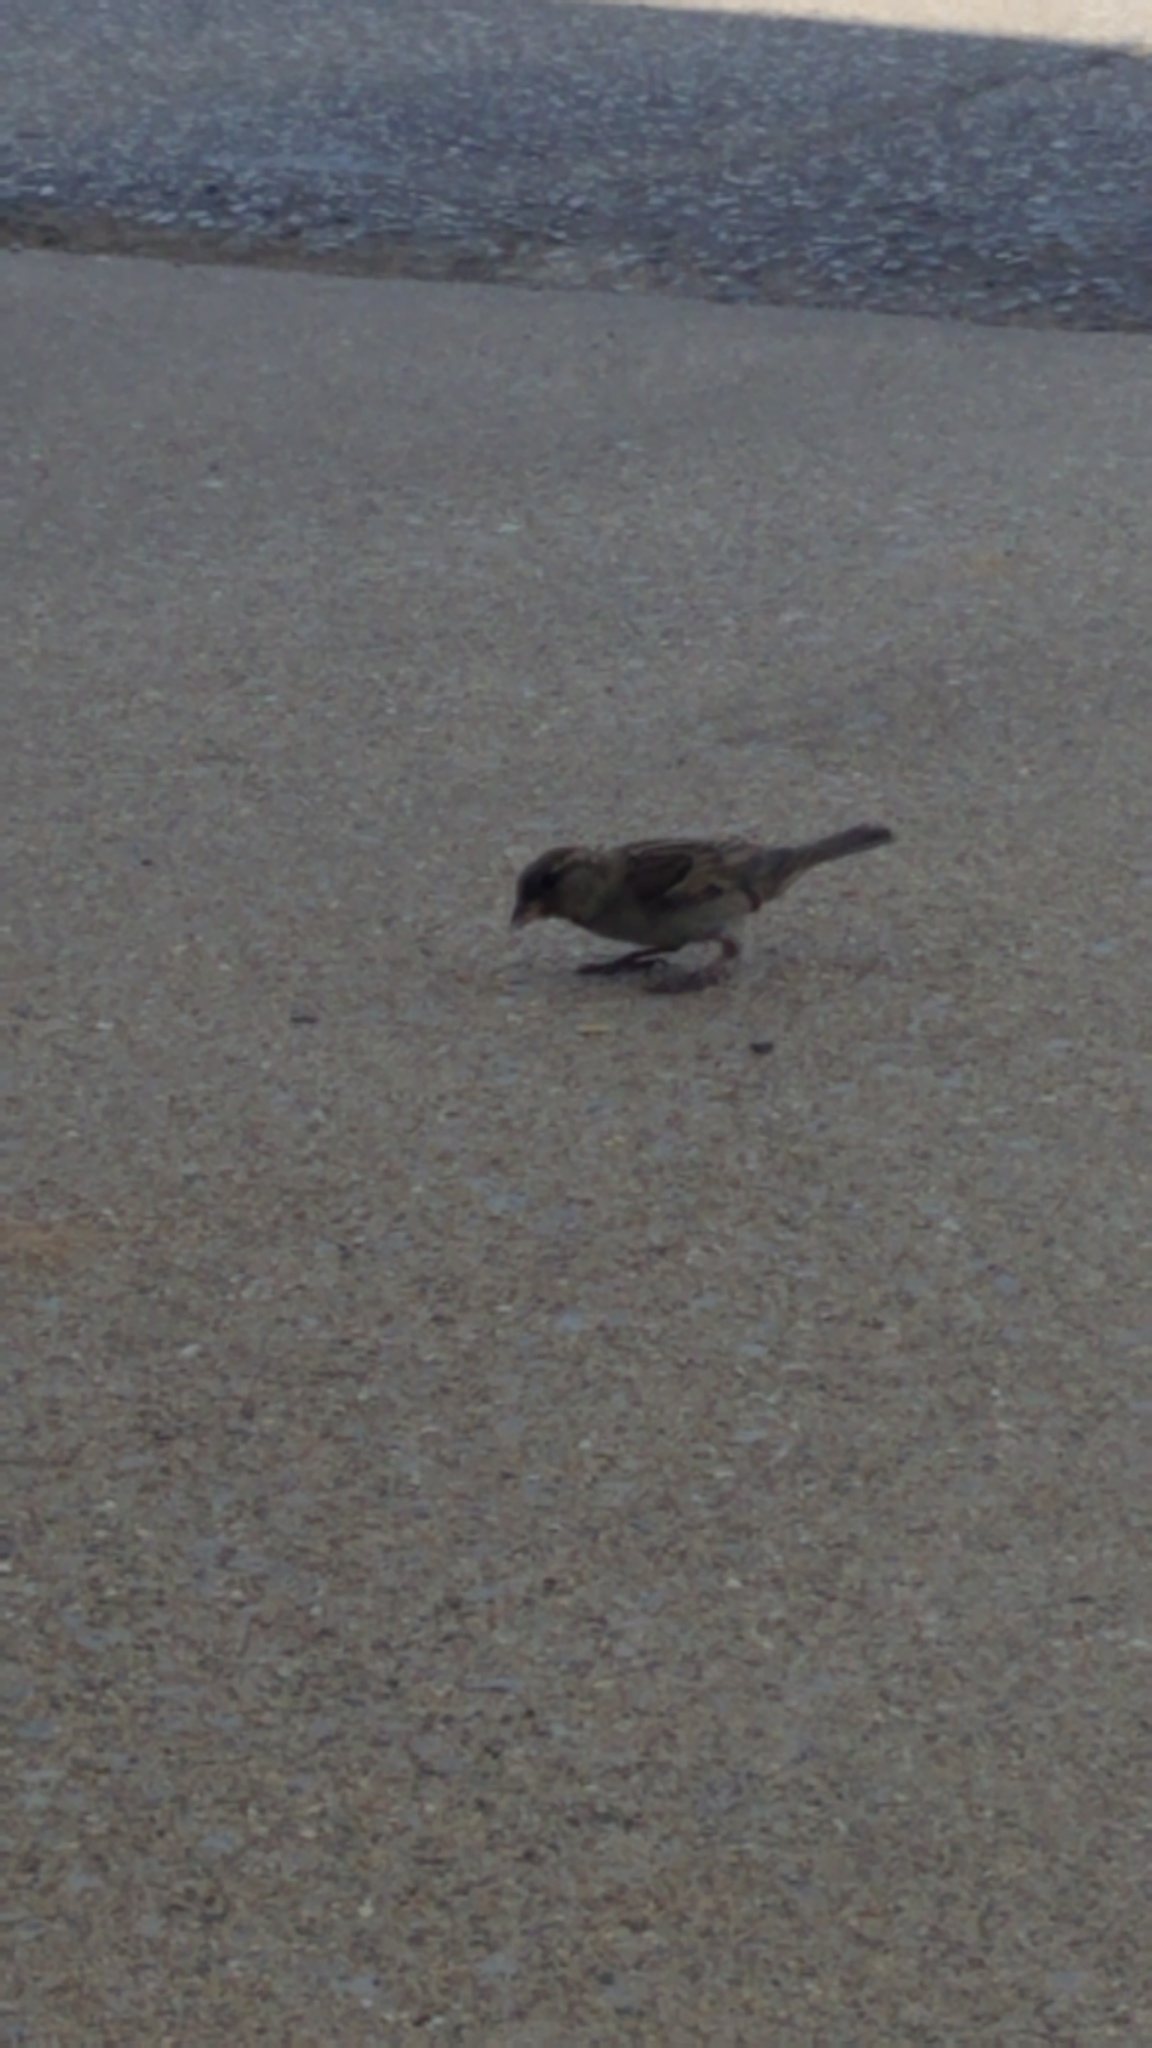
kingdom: Animalia
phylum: Chordata
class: Aves
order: Passeriformes
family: Passeridae
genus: Passer
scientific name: Passer domesticus
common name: House sparrow
